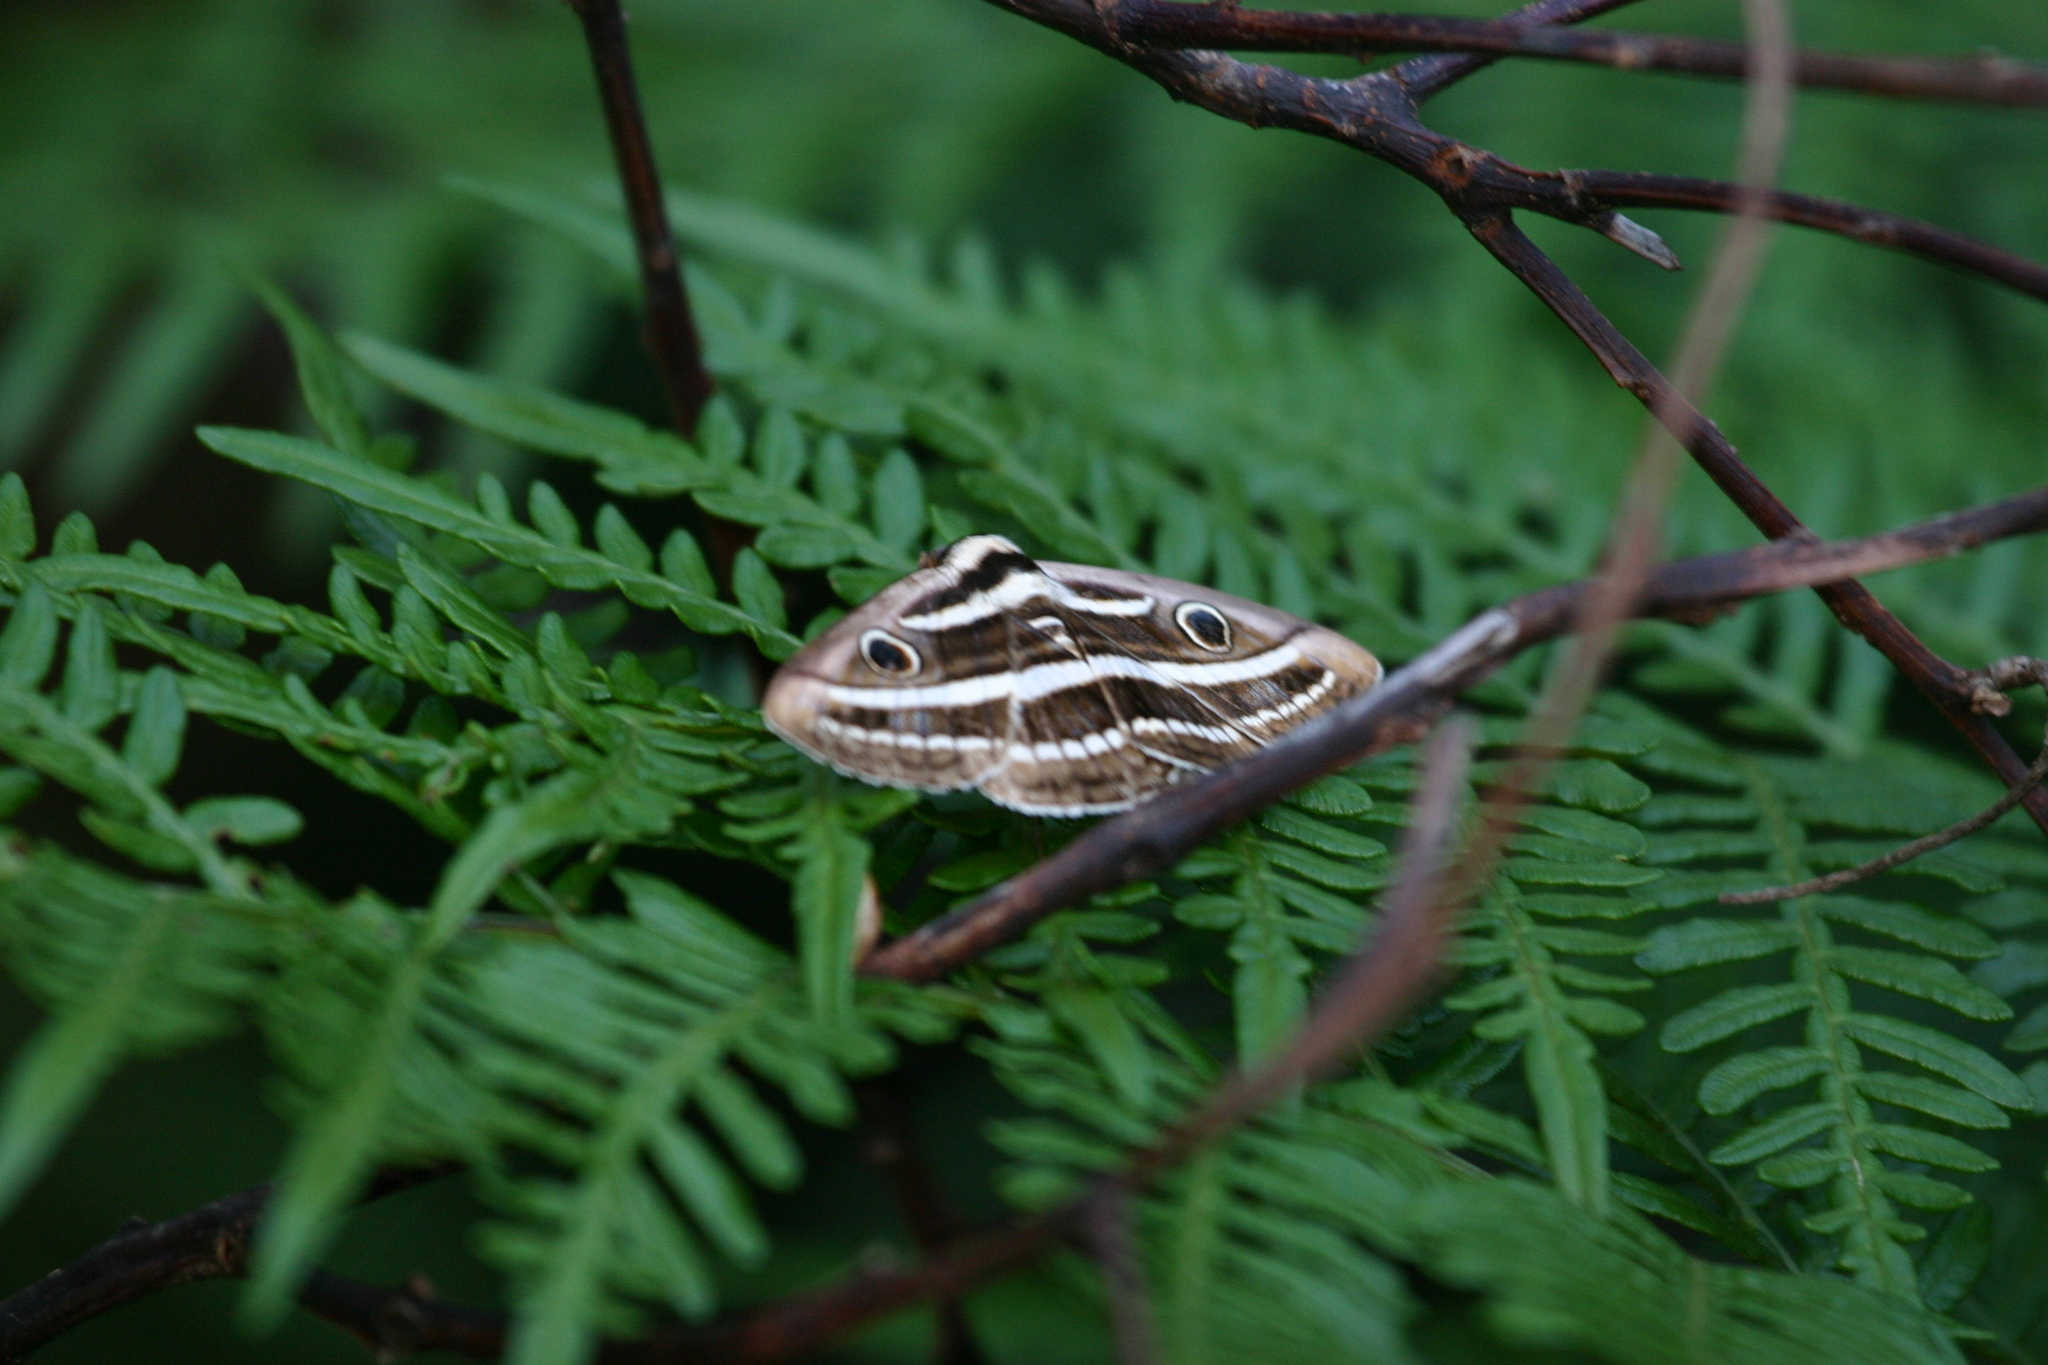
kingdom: Animalia
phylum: Arthropoda
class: Insecta
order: Lepidoptera
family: Erebidae
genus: Donuca
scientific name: Donuca orbigera
